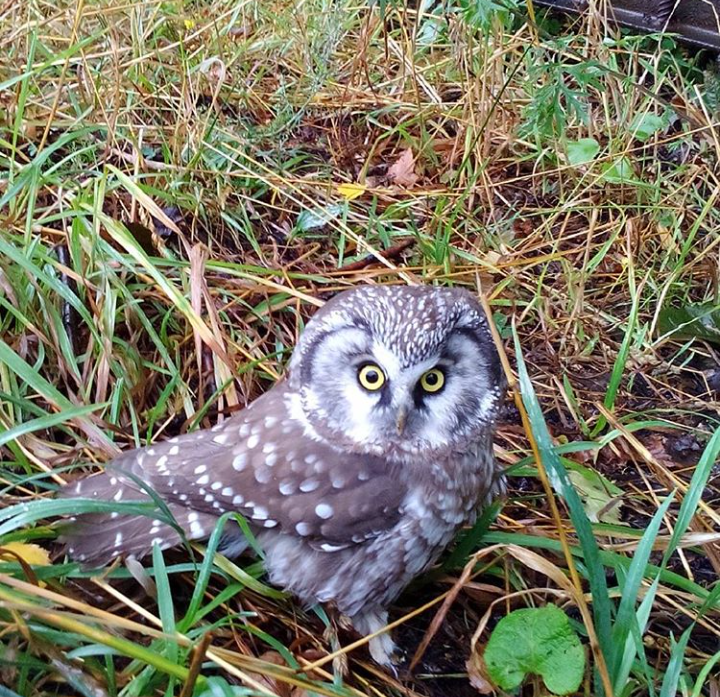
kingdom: Animalia
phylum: Chordata
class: Aves
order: Strigiformes
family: Strigidae
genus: Aegolius
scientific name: Aegolius funereus
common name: Boreal owl
